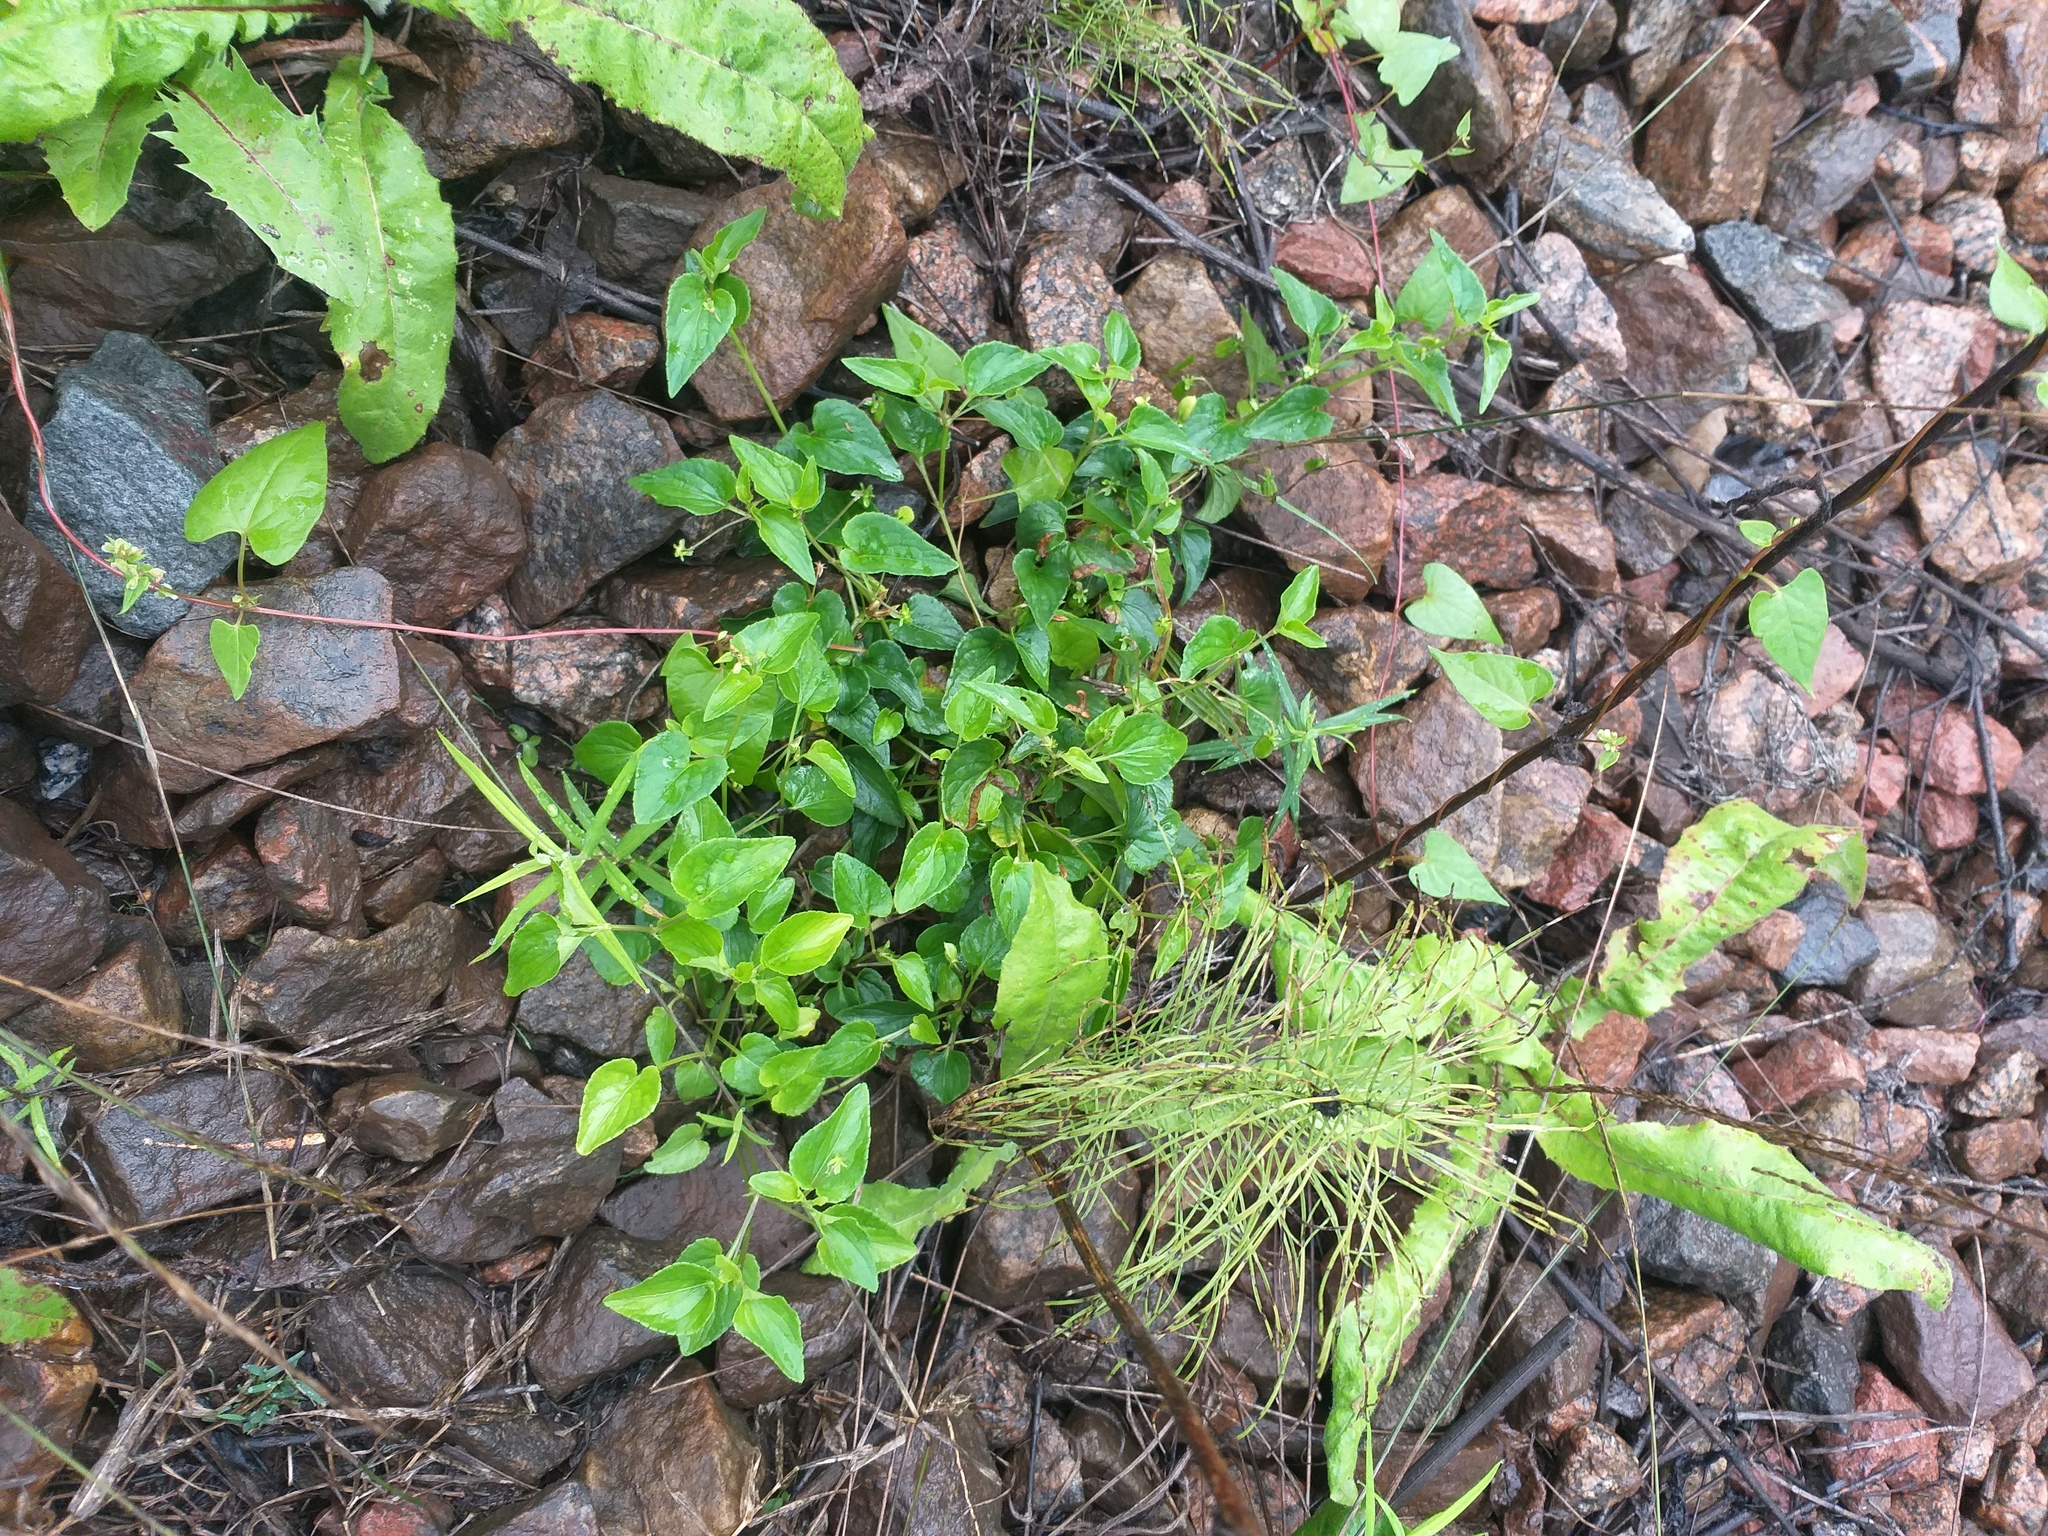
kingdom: Plantae
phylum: Tracheophyta
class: Magnoliopsida
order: Malpighiales
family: Violaceae
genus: Viola
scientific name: Viola canina
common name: Heath dog-violet
